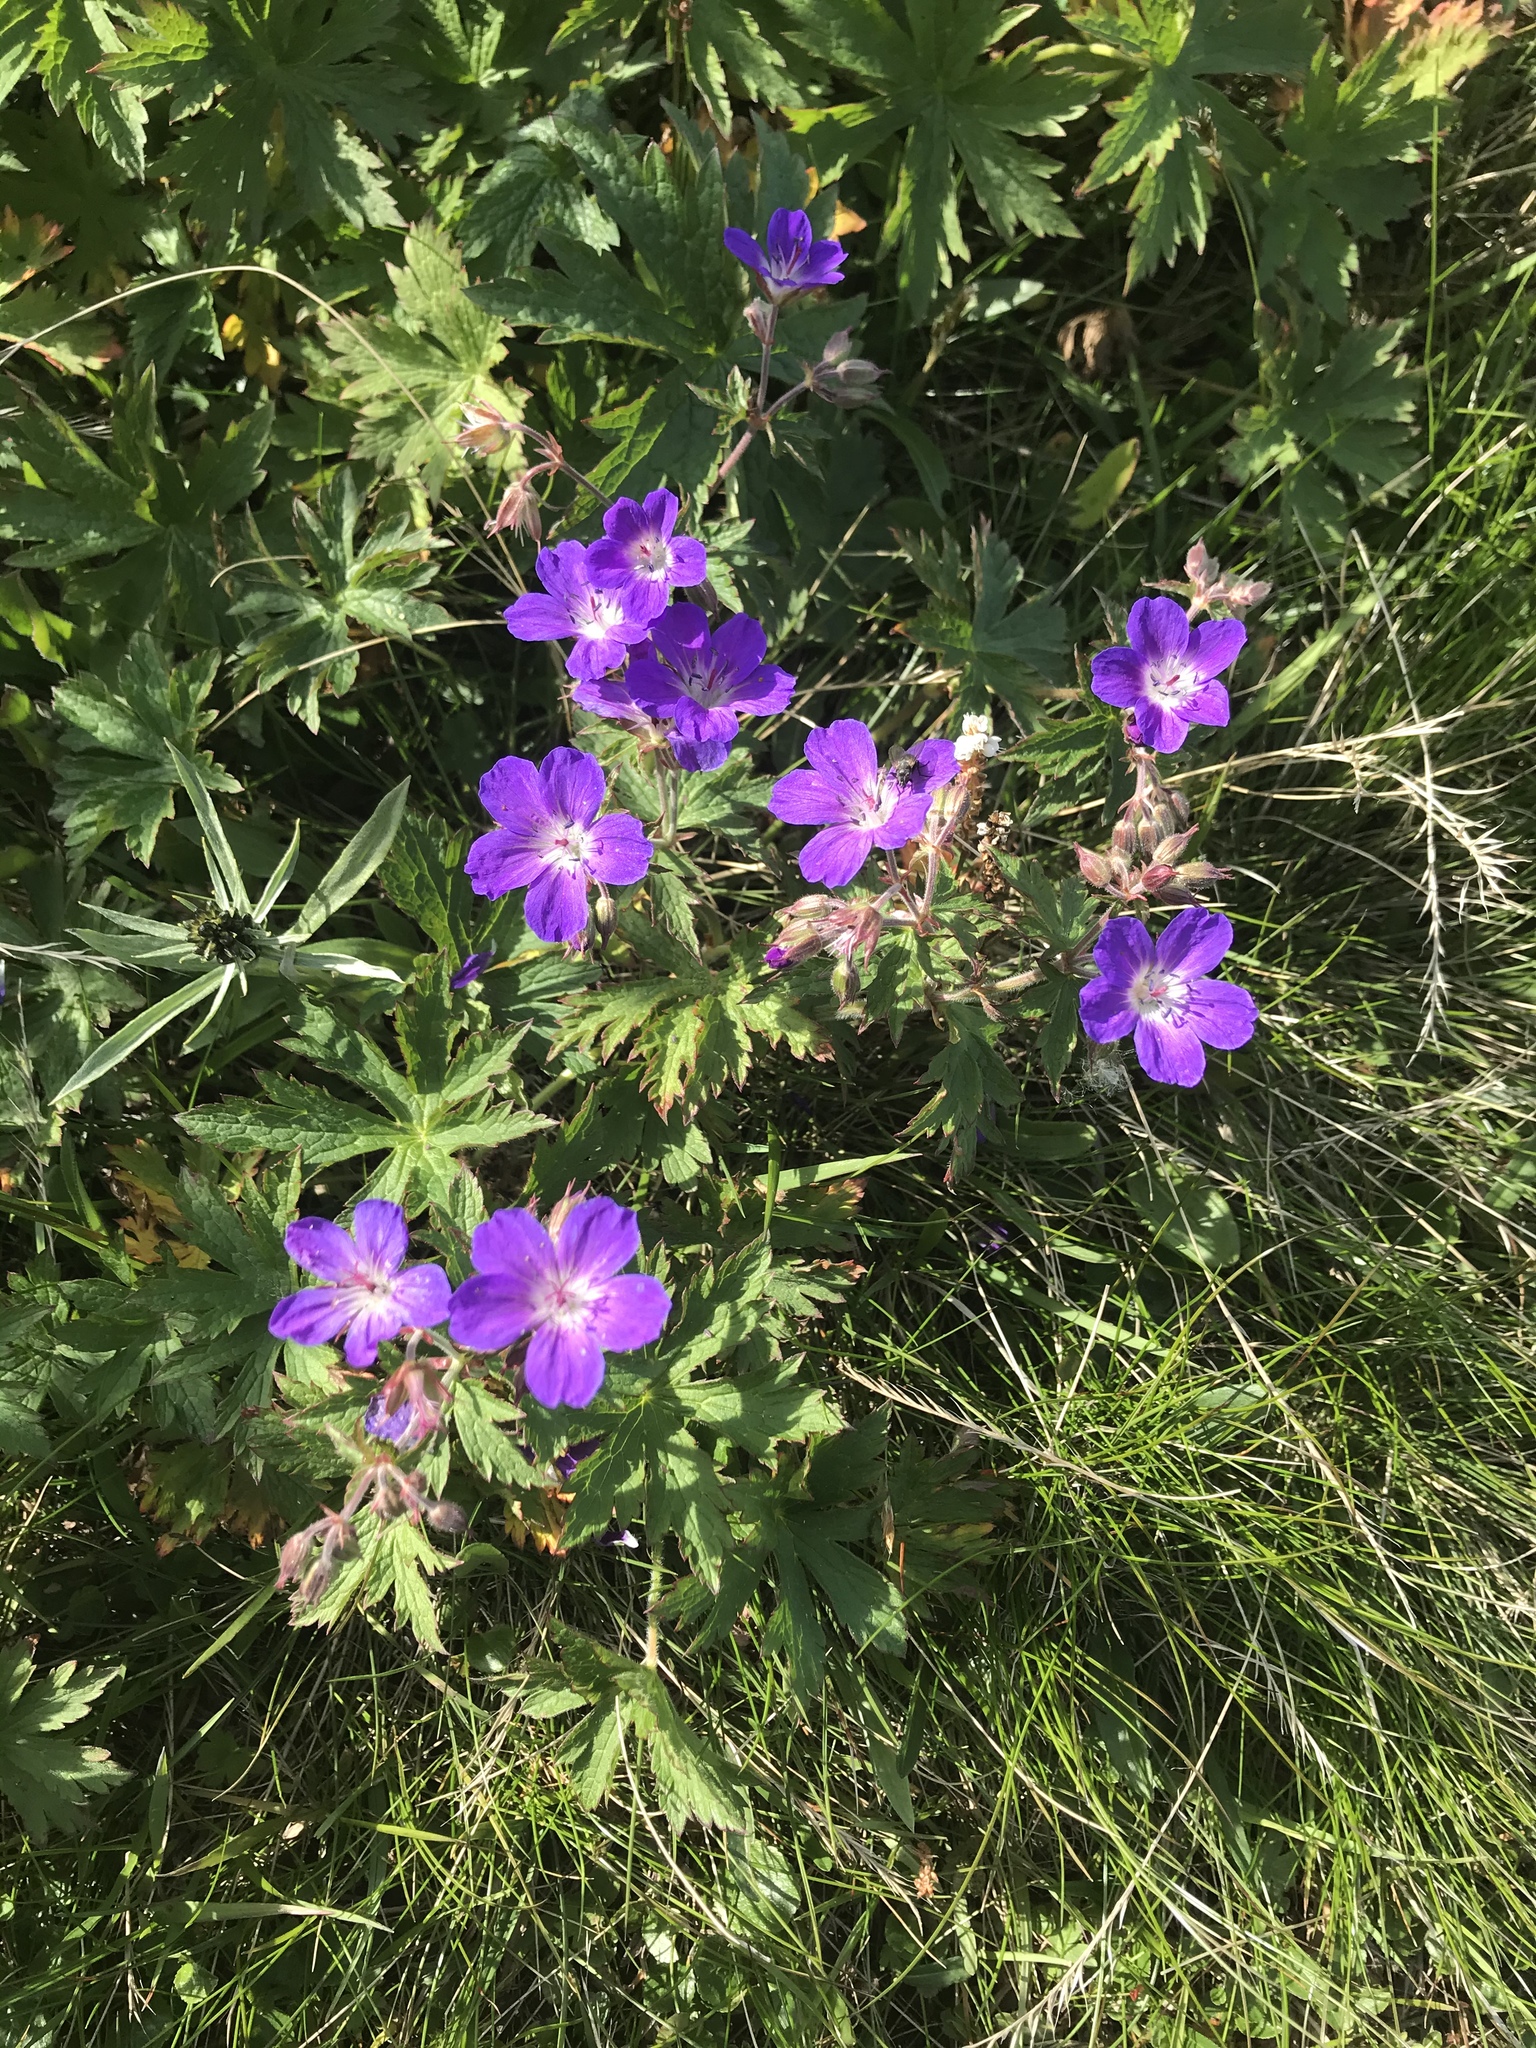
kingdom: Plantae
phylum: Tracheophyta
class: Magnoliopsida
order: Geraniales
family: Geraniaceae
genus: Geranium
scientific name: Geranium sylvaticum
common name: Wood crane's-bill
